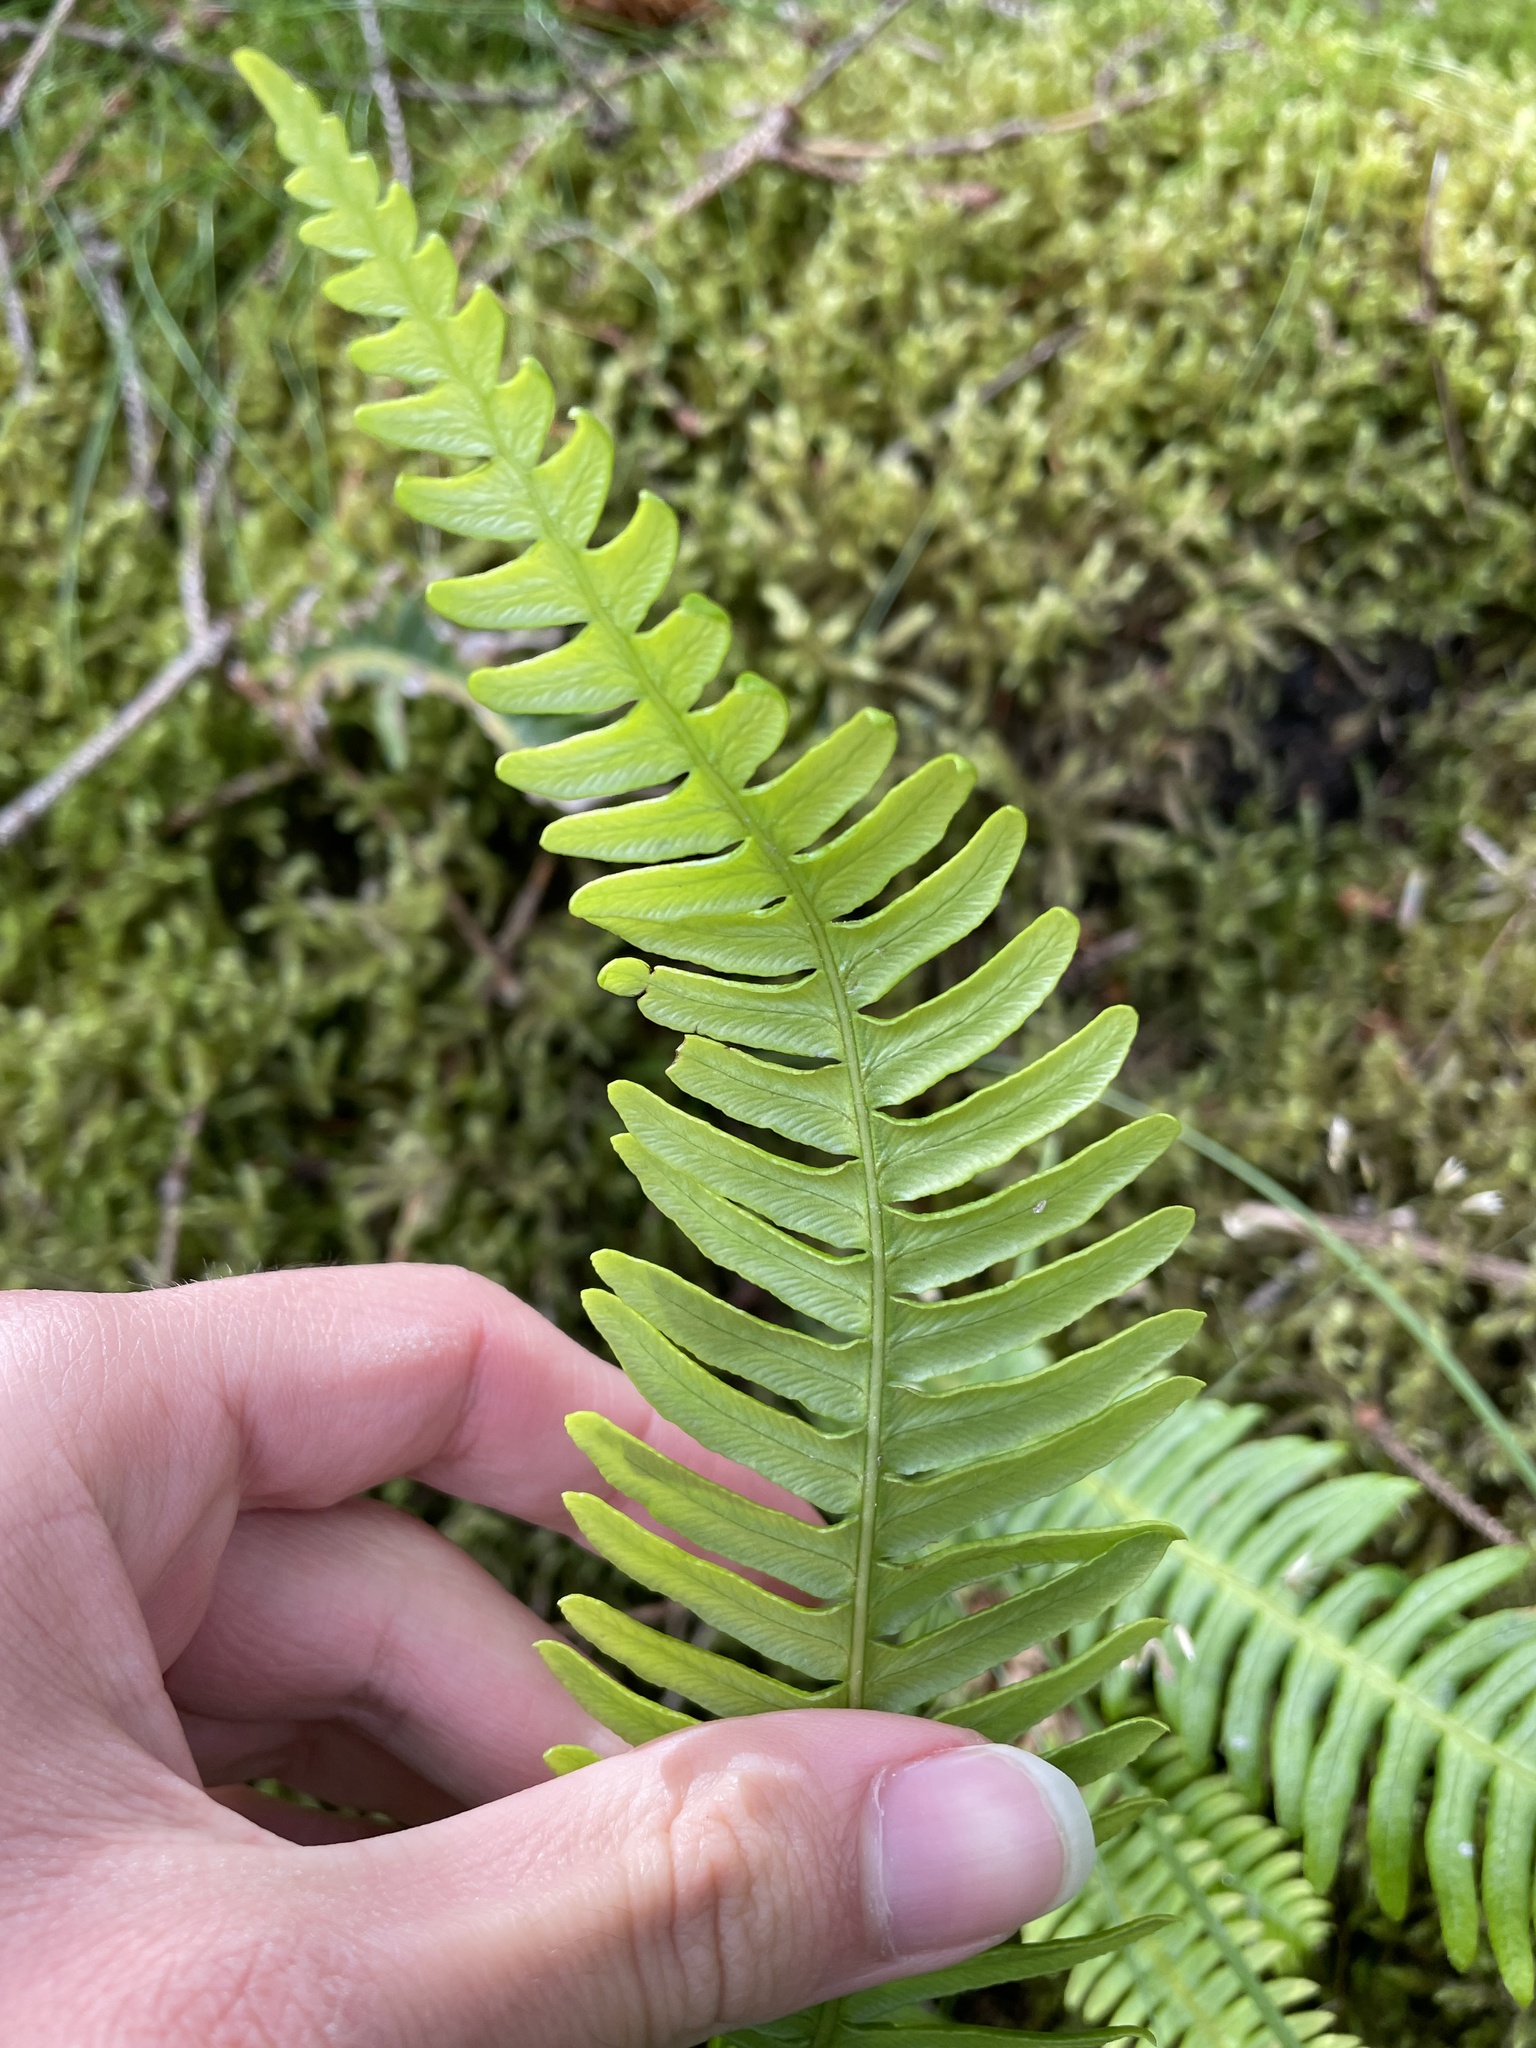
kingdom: Plantae
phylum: Tracheophyta
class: Polypodiopsida
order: Polypodiales
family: Blechnaceae
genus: Struthiopteris
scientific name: Struthiopteris spicant
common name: Deer fern
